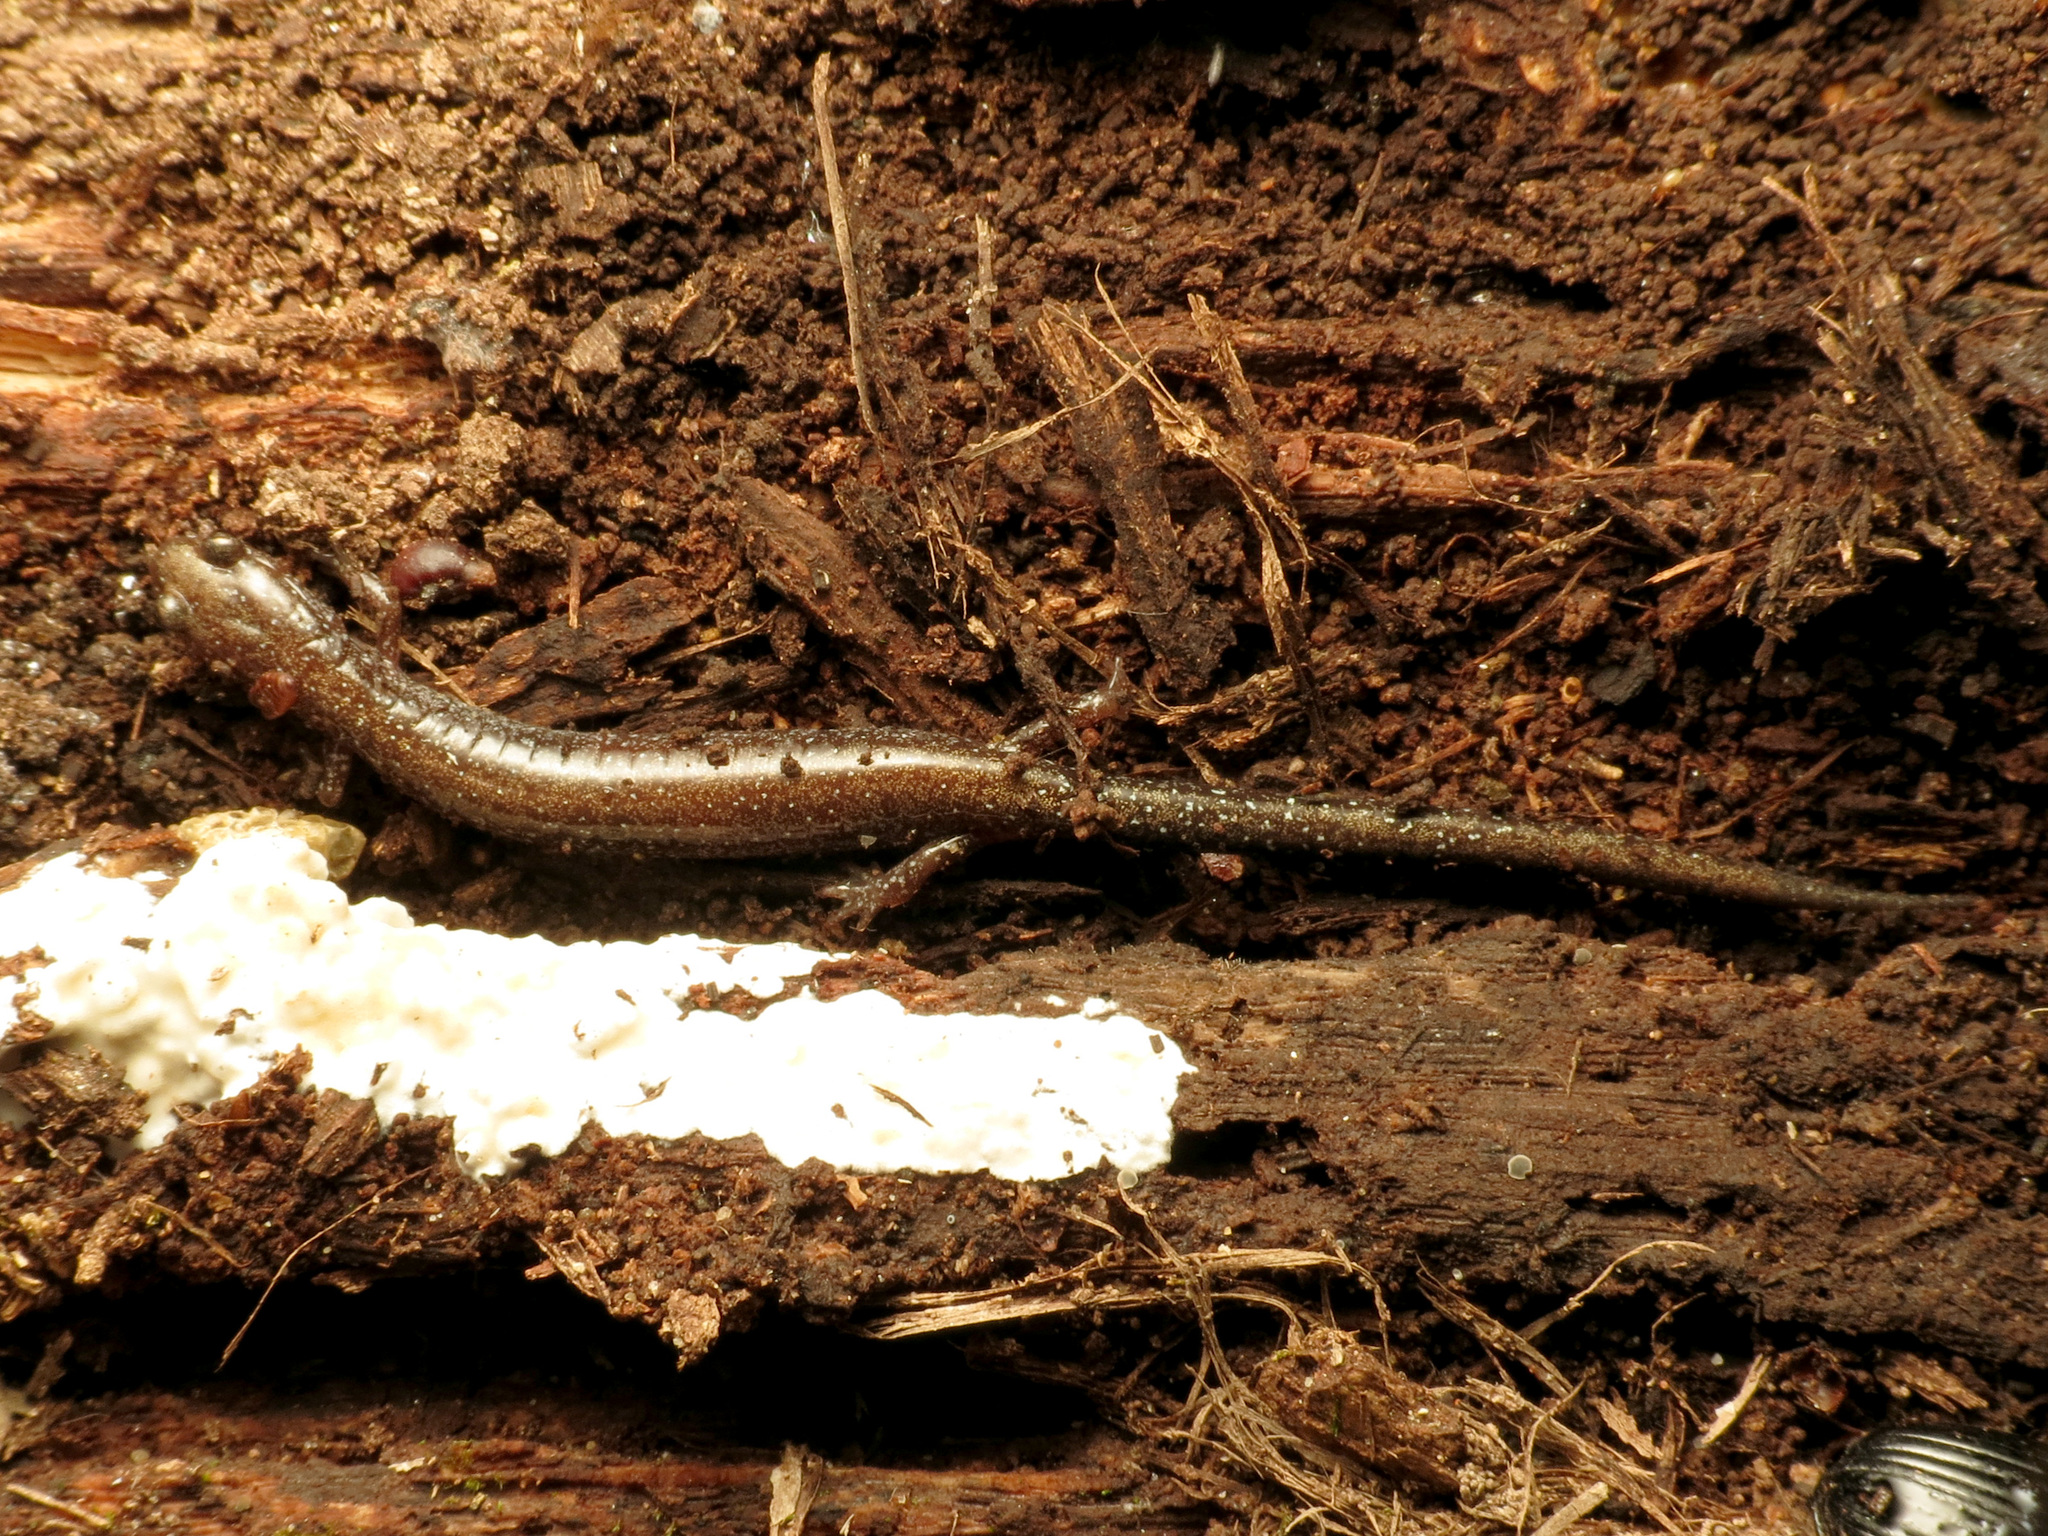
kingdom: Animalia
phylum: Chordata
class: Amphibia
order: Caudata
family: Plethodontidae
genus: Plethodon
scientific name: Plethodon cinereus
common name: Redback salamander
